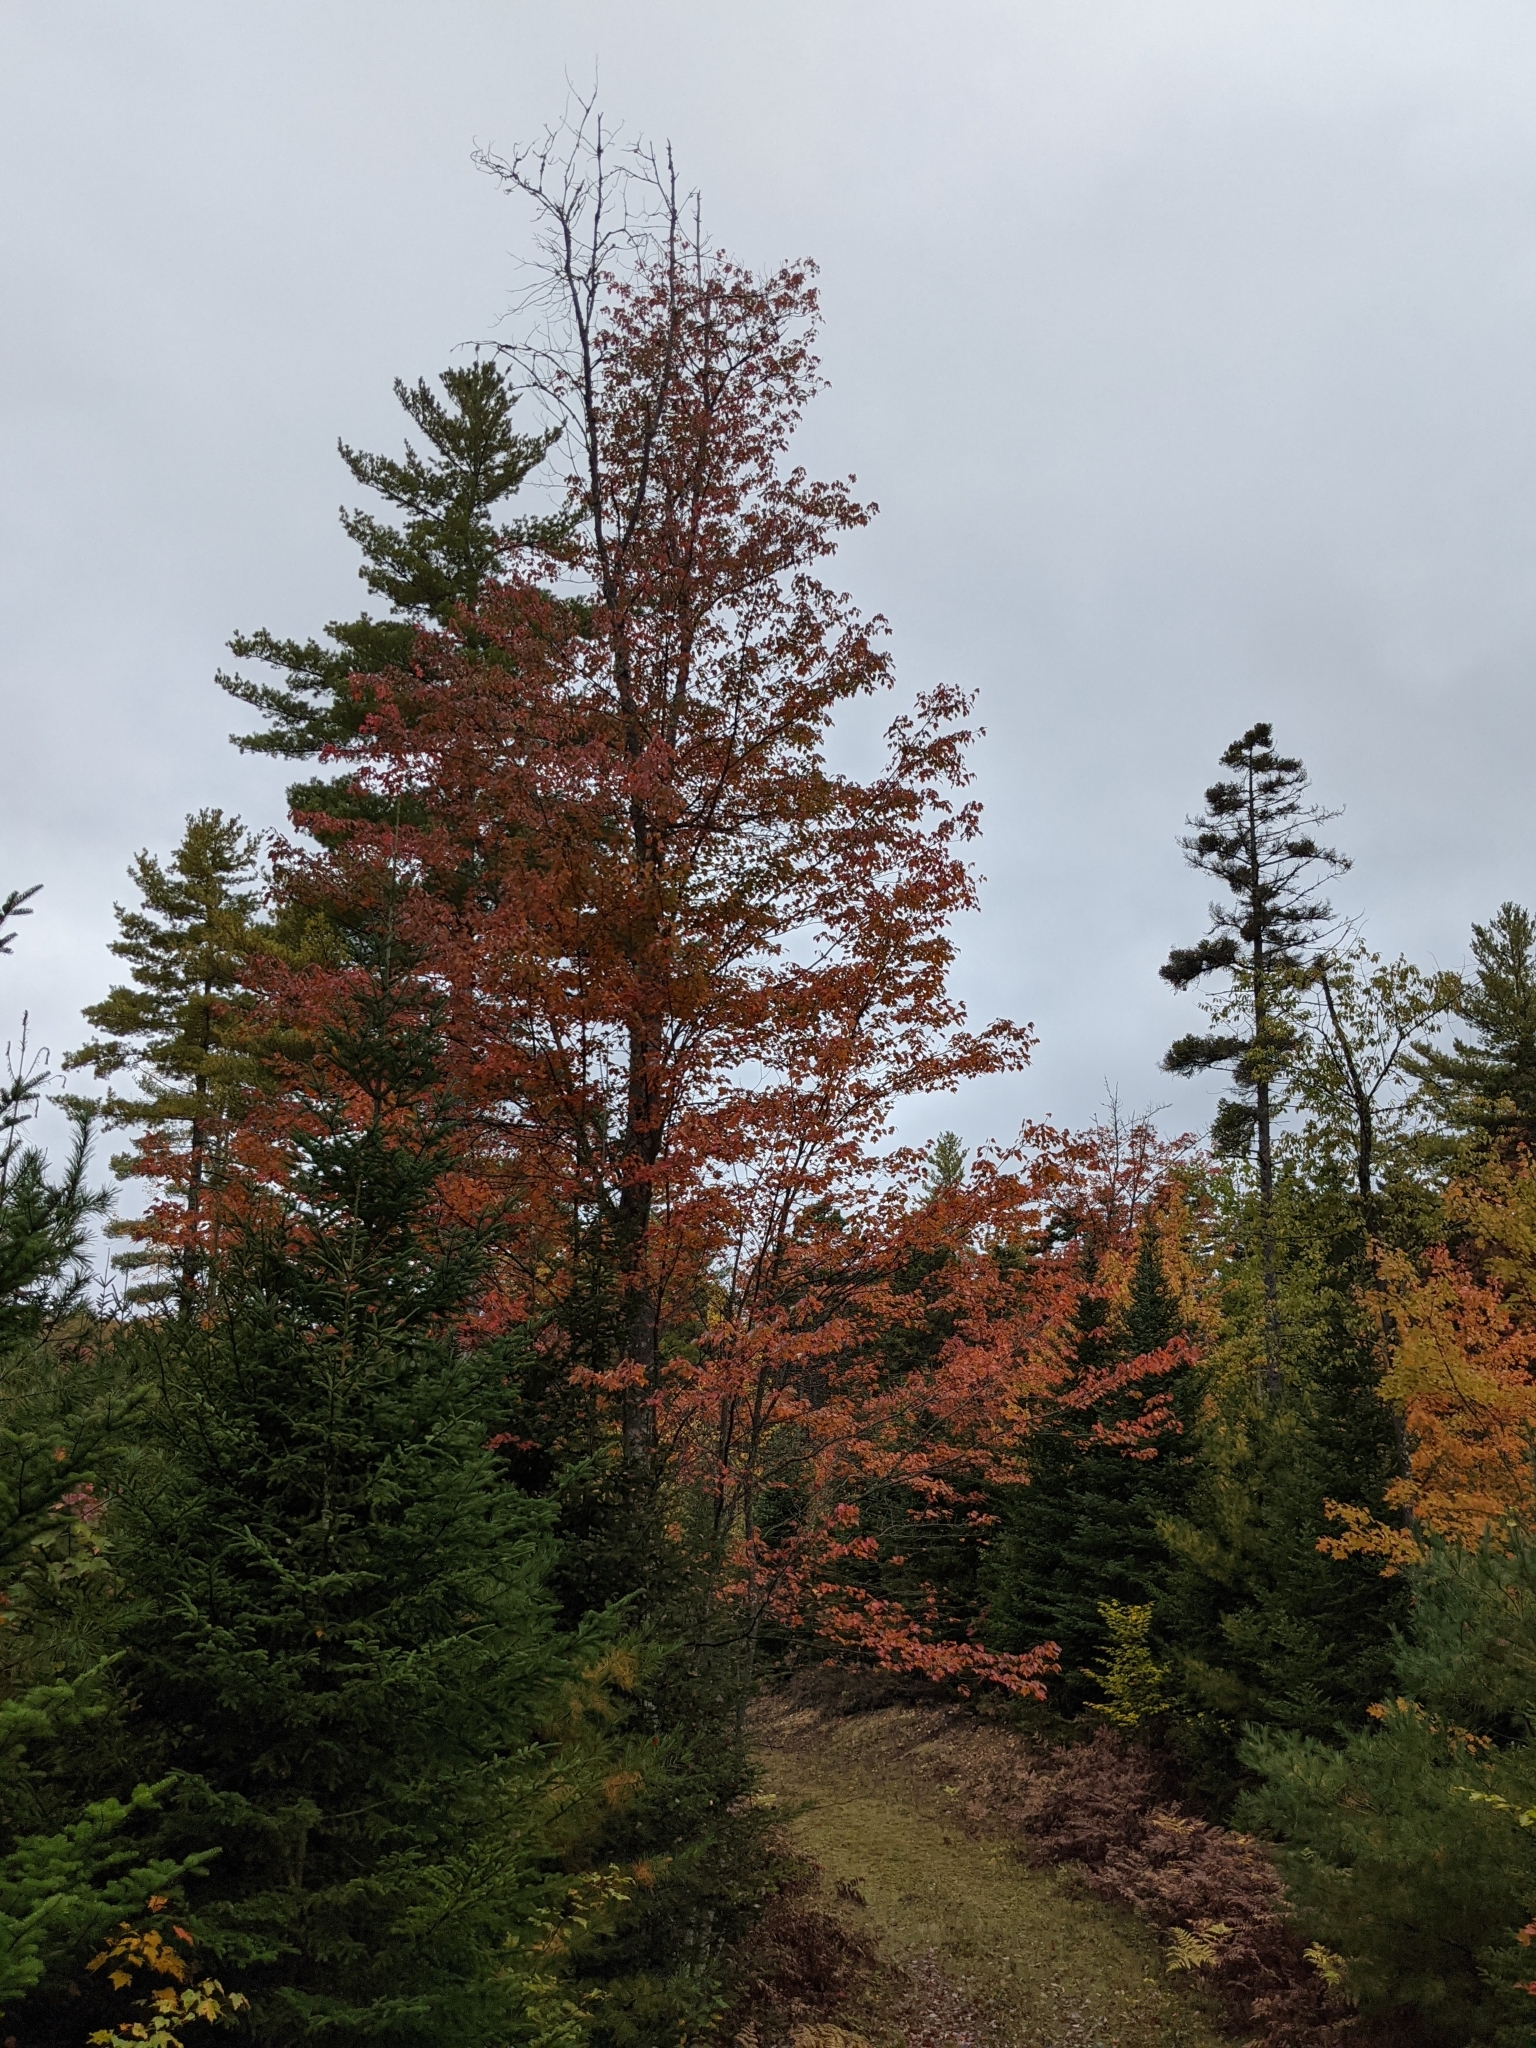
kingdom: Plantae
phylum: Tracheophyta
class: Magnoliopsida
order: Sapindales
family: Sapindaceae
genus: Acer
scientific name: Acer rubrum
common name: Red maple
